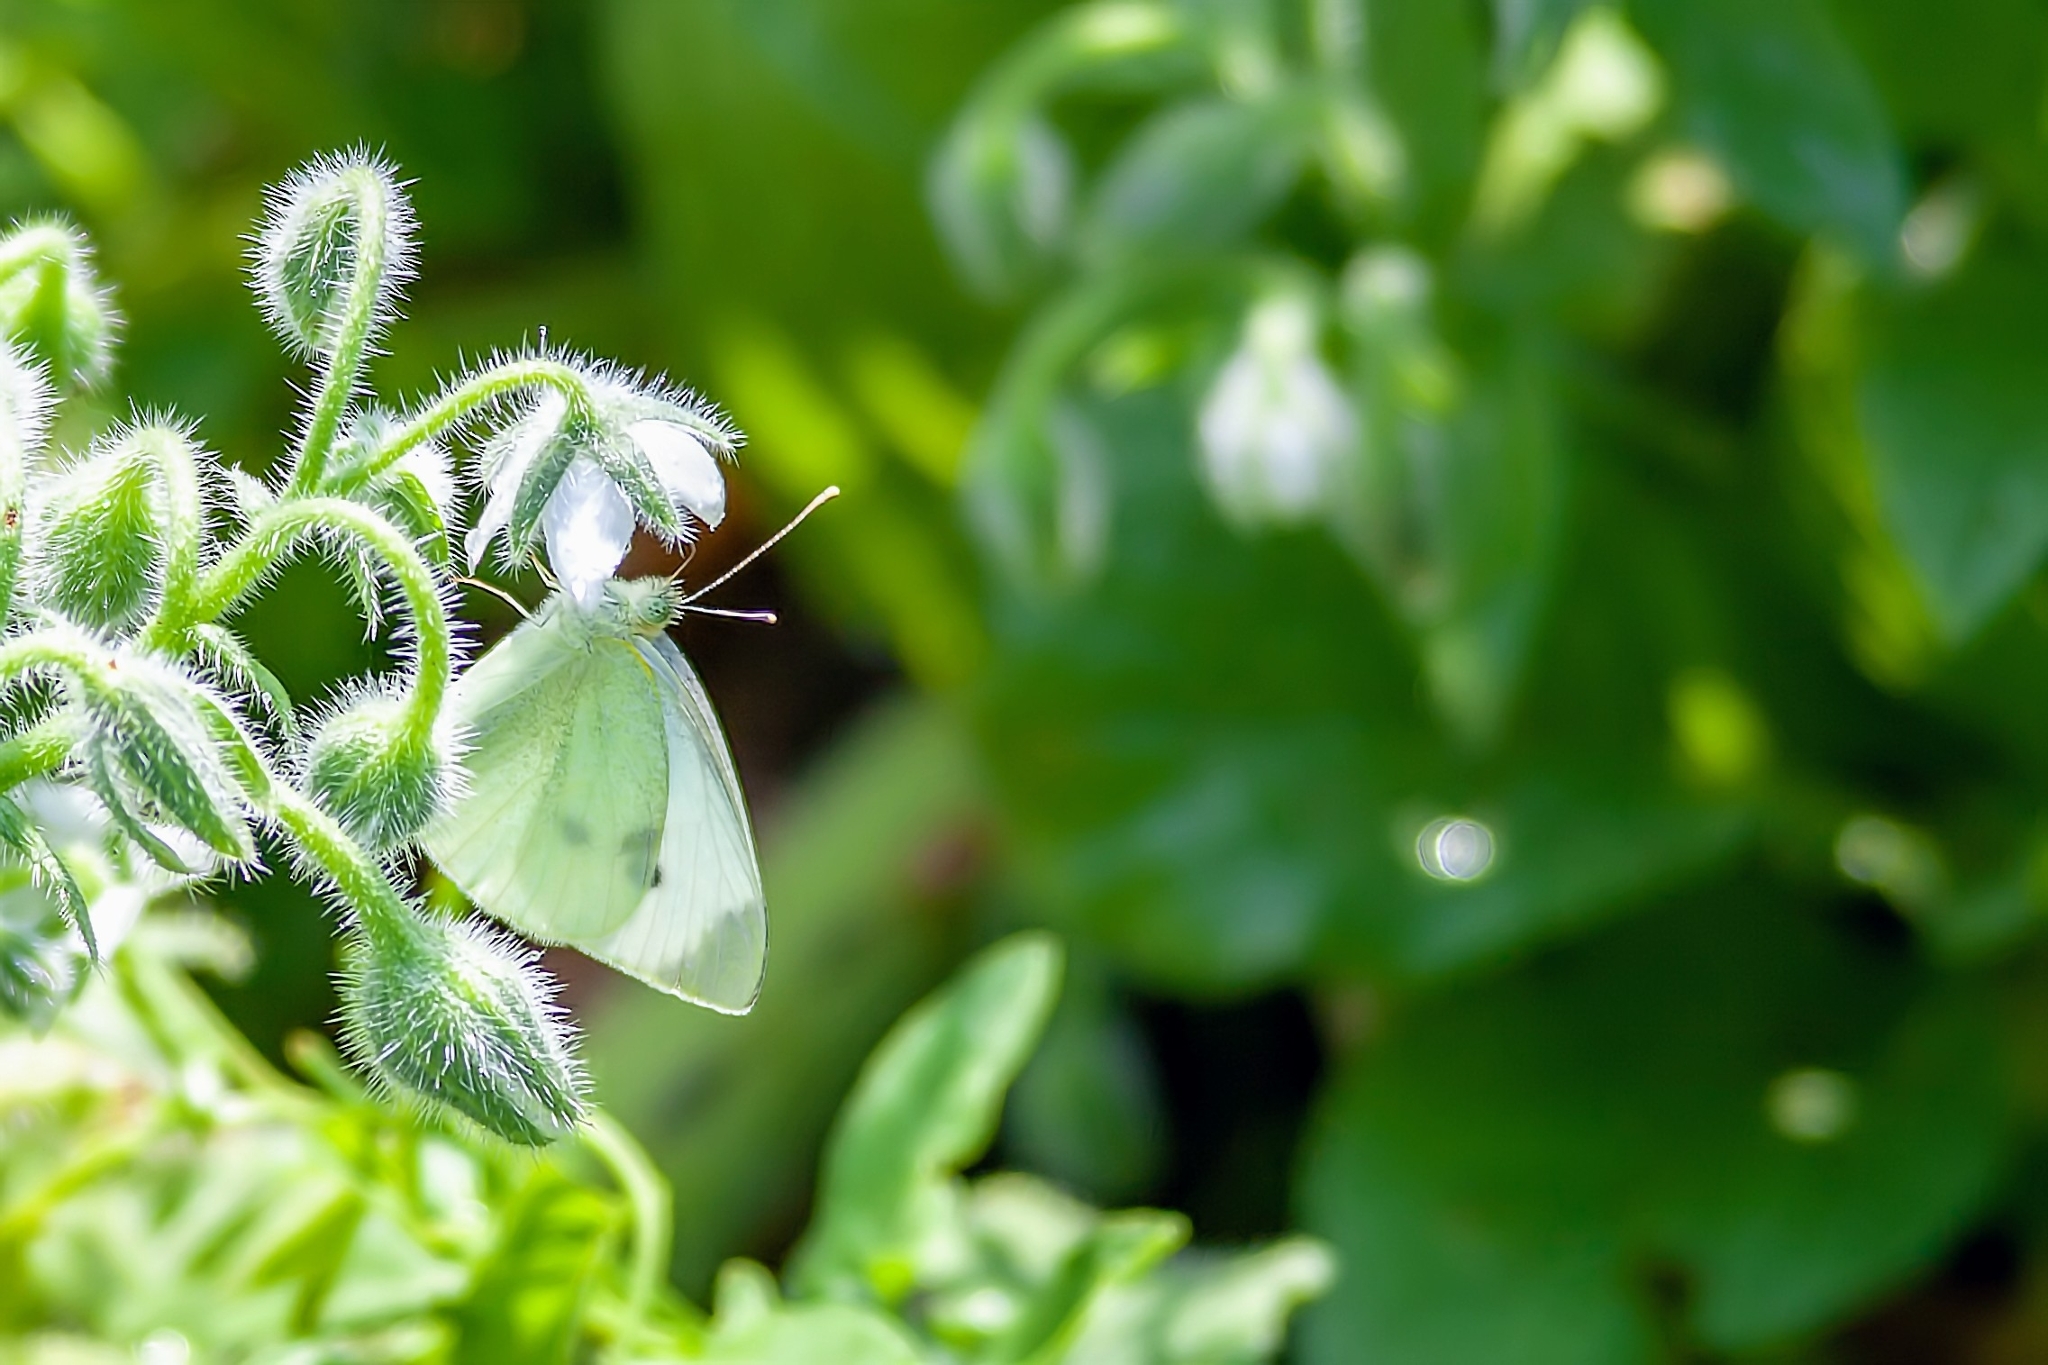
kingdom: Animalia
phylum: Arthropoda
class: Insecta
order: Lepidoptera
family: Pieridae
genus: Pieris
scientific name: Pieris rapae
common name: Small white
